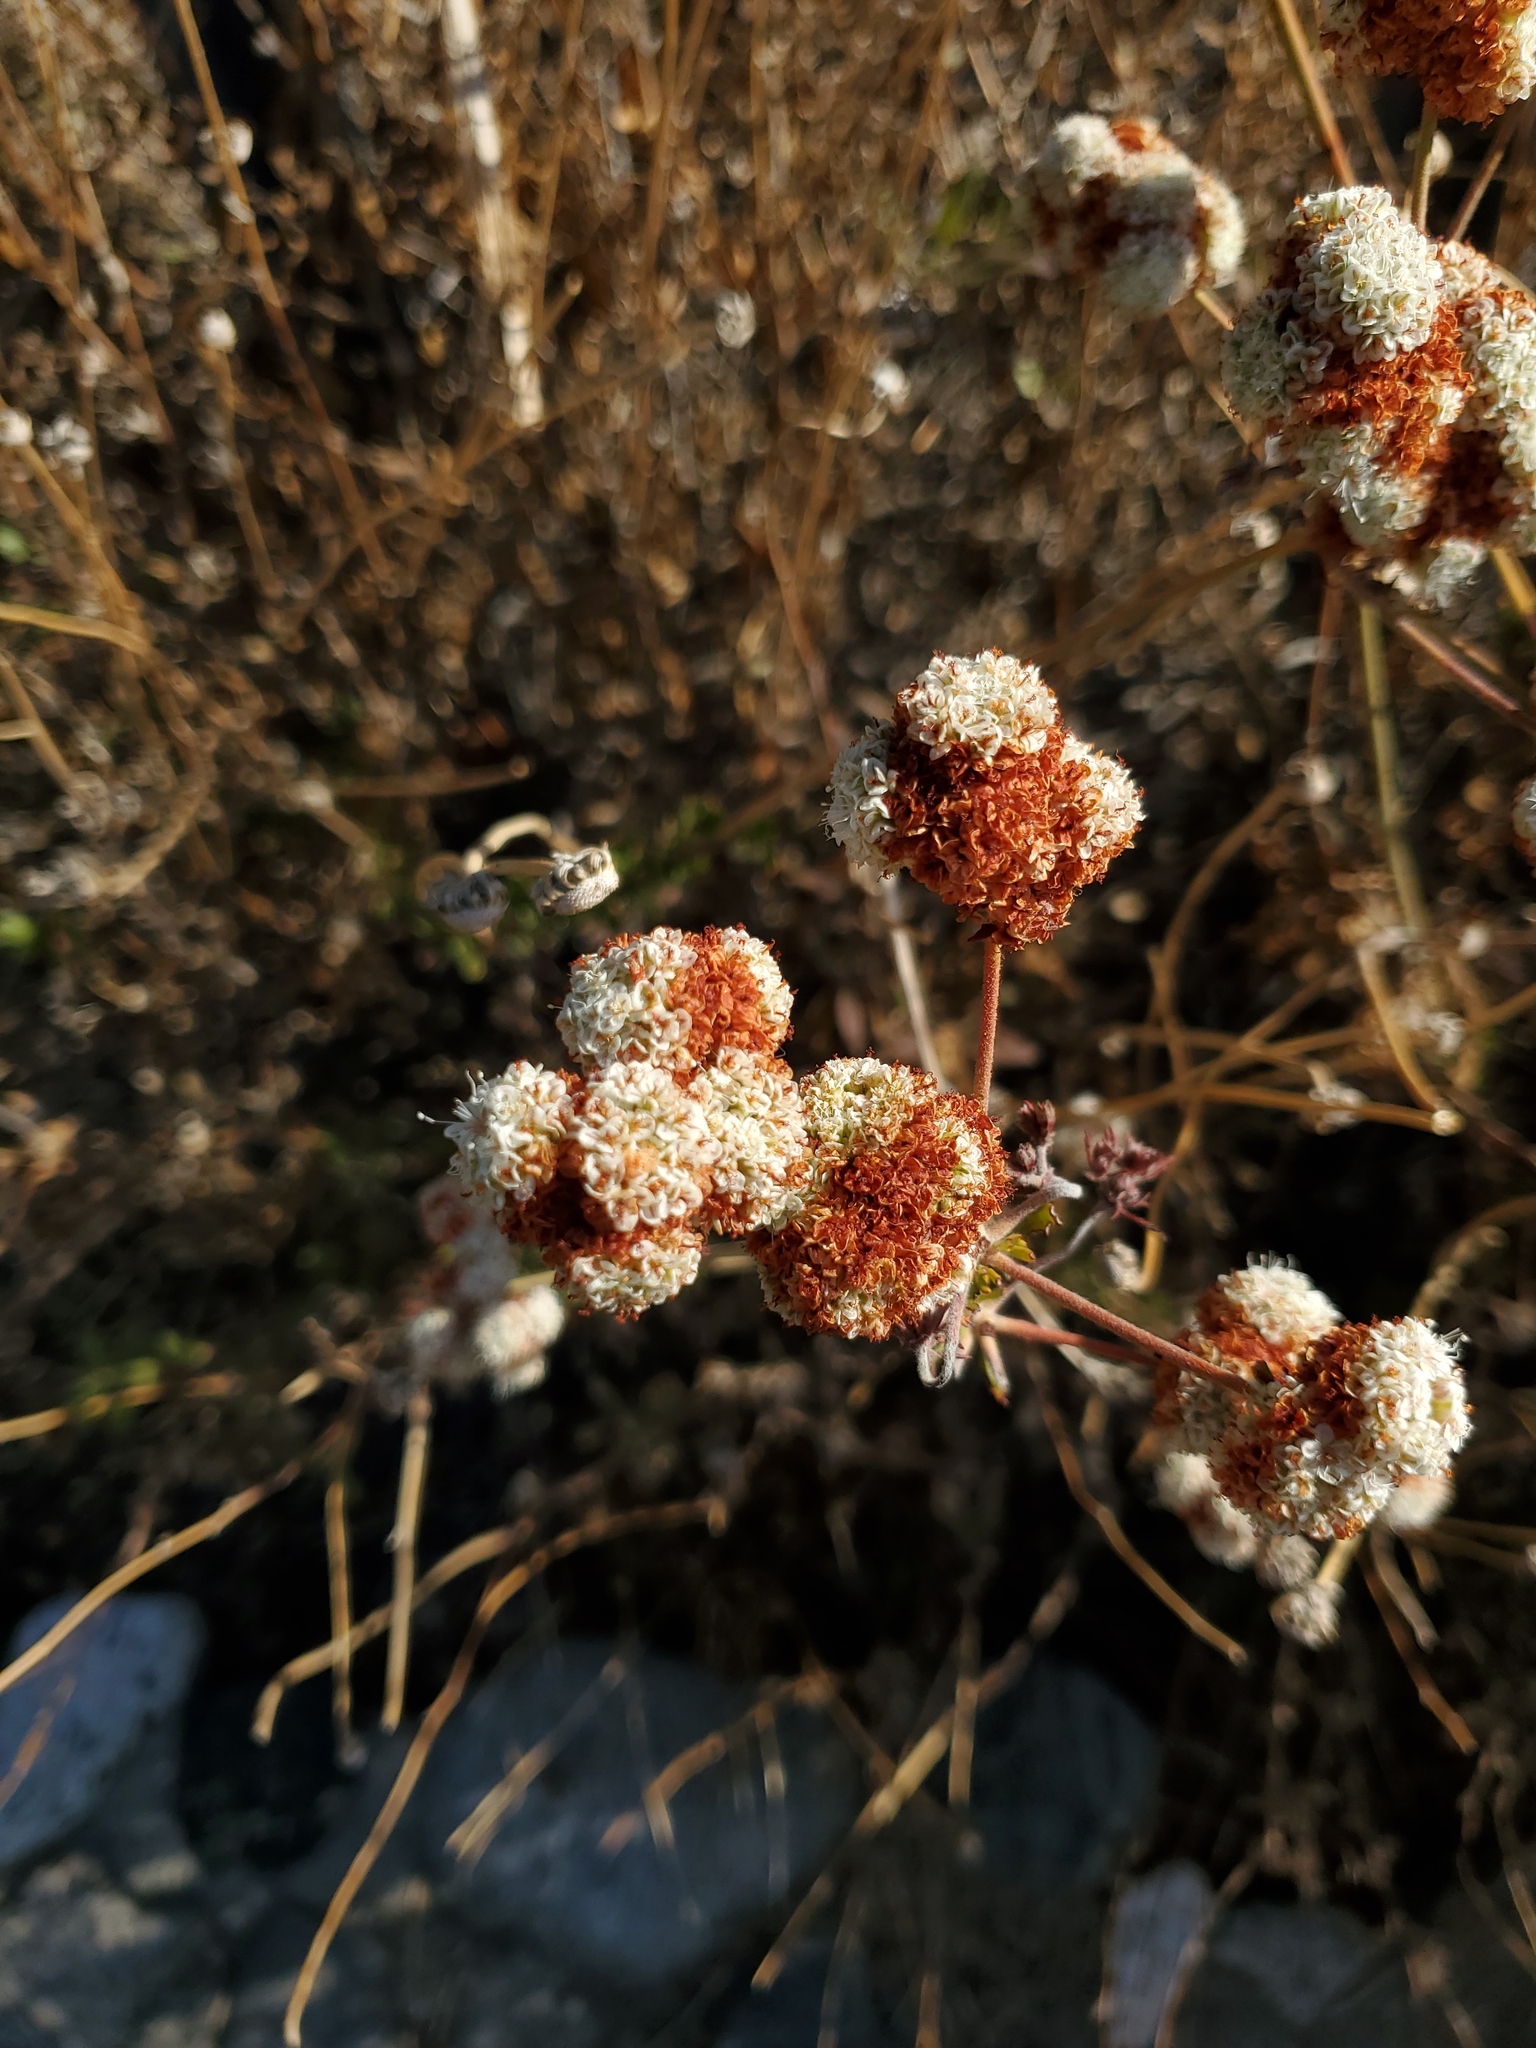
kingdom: Plantae
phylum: Tracheophyta
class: Magnoliopsida
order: Caryophyllales
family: Polygonaceae
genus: Eriogonum
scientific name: Eriogonum fasciculatum
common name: California wild buckwheat
